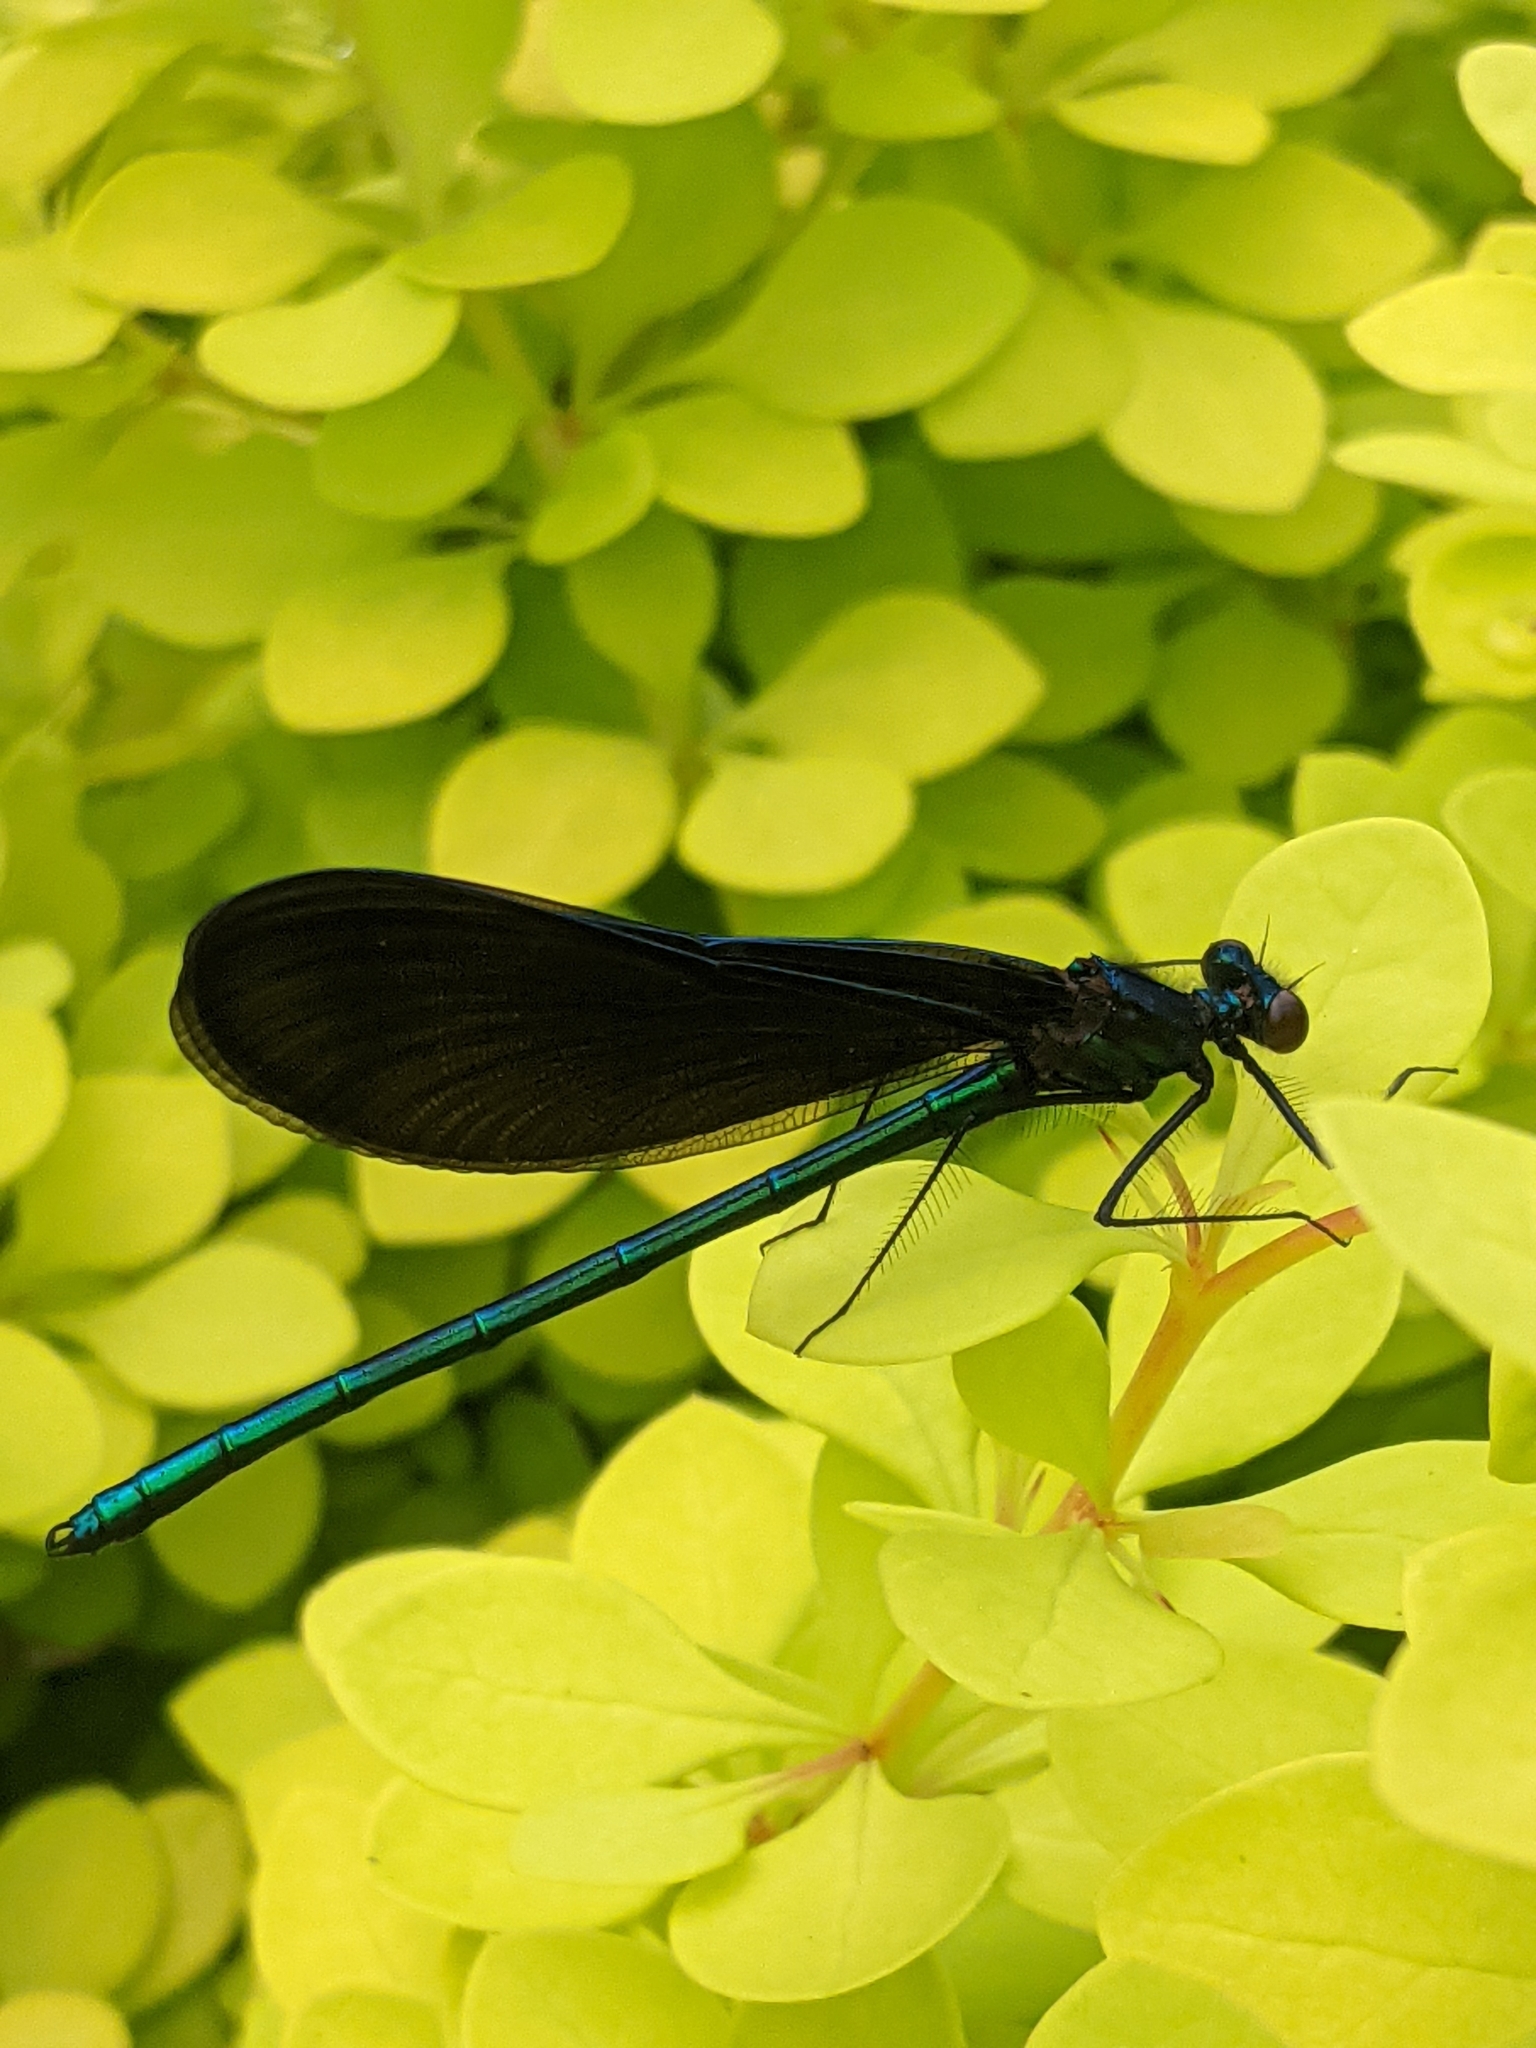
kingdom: Animalia
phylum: Arthropoda
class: Insecta
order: Odonata
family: Calopterygidae
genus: Calopteryx
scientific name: Calopteryx maculata
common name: Ebony jewelwing
